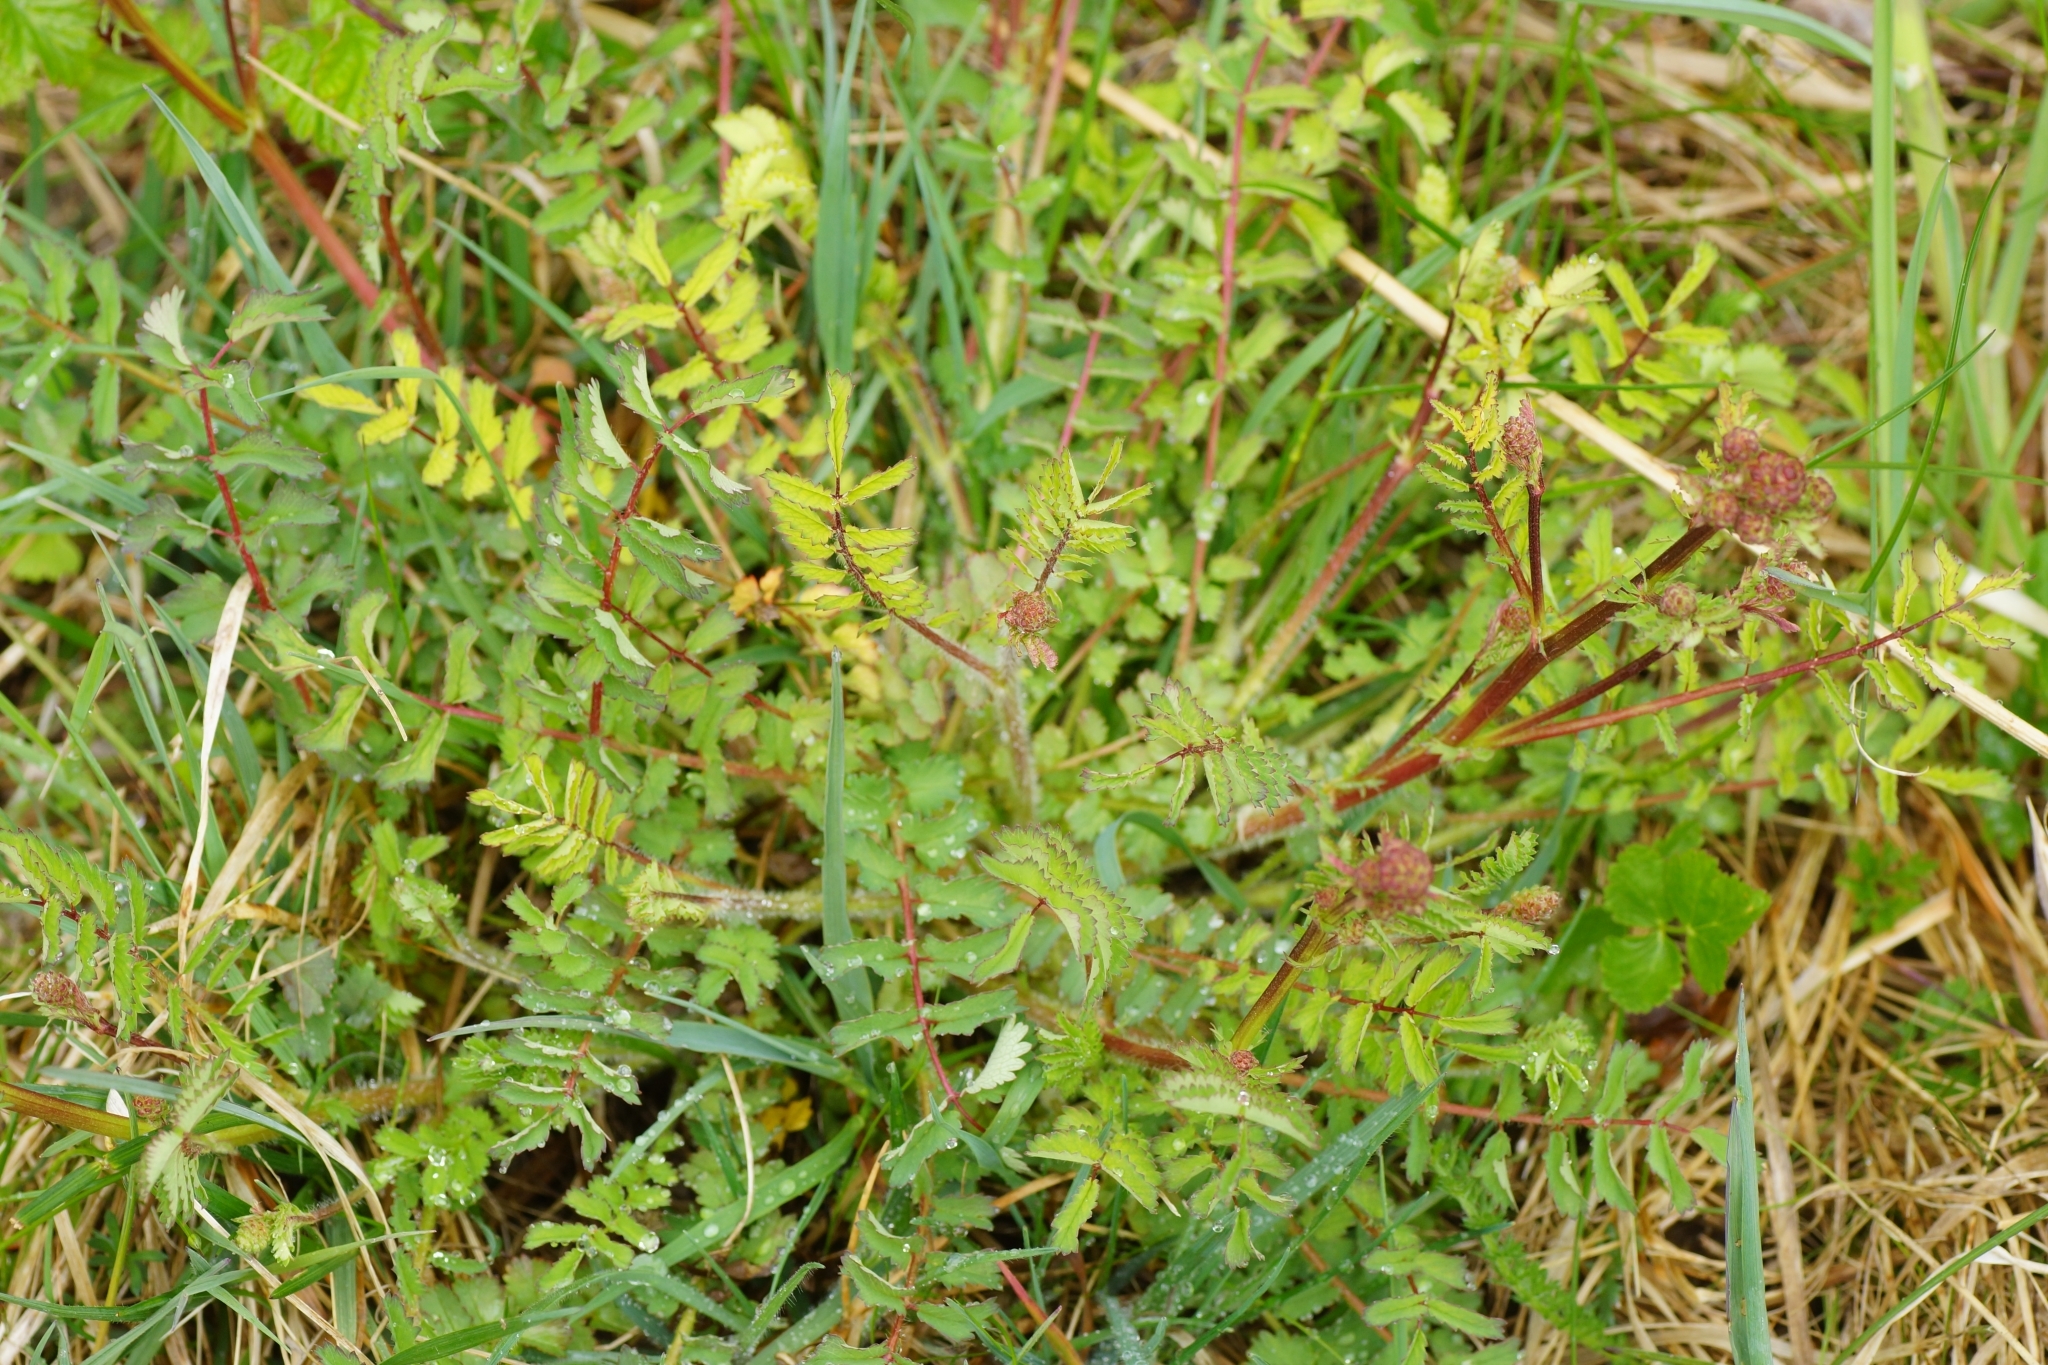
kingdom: Plantae
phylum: Tracheophyta
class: Magnoliopsida
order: Rosales
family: Rosaceae
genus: Poterium
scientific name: Poterium sanguisorba
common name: Salad burnet
